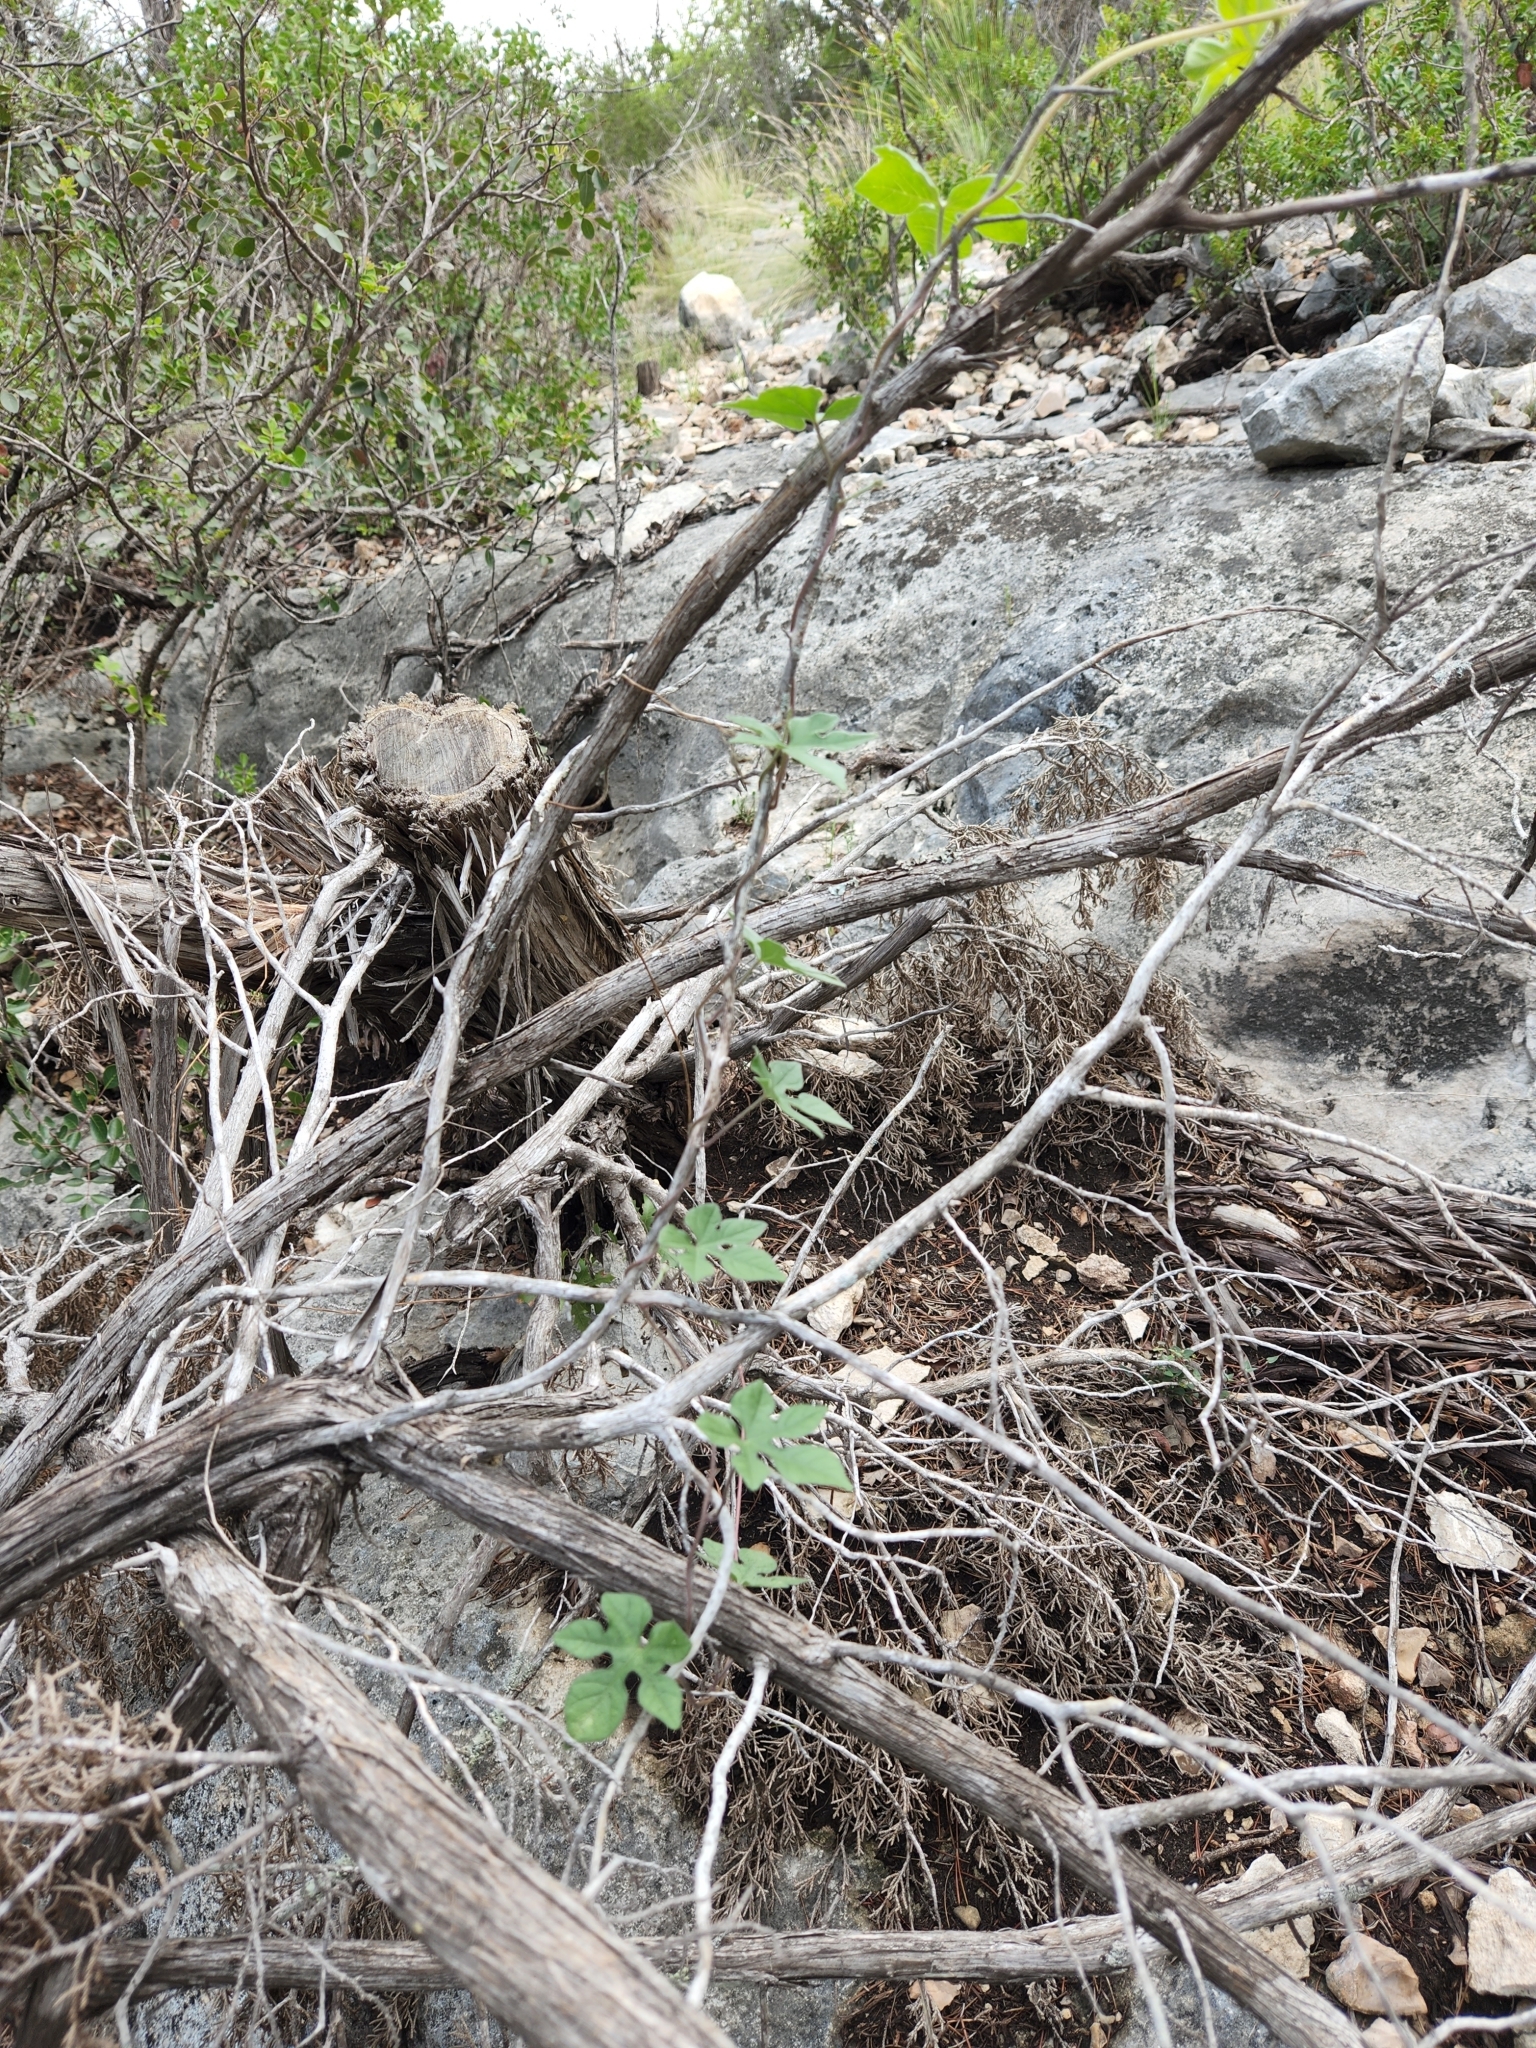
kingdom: Plantae
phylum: Tracheophyta
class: Magnoliopsida
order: Solanales
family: Convolvulaceae
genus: Ipomoea
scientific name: Ipomoea lindheimeri
